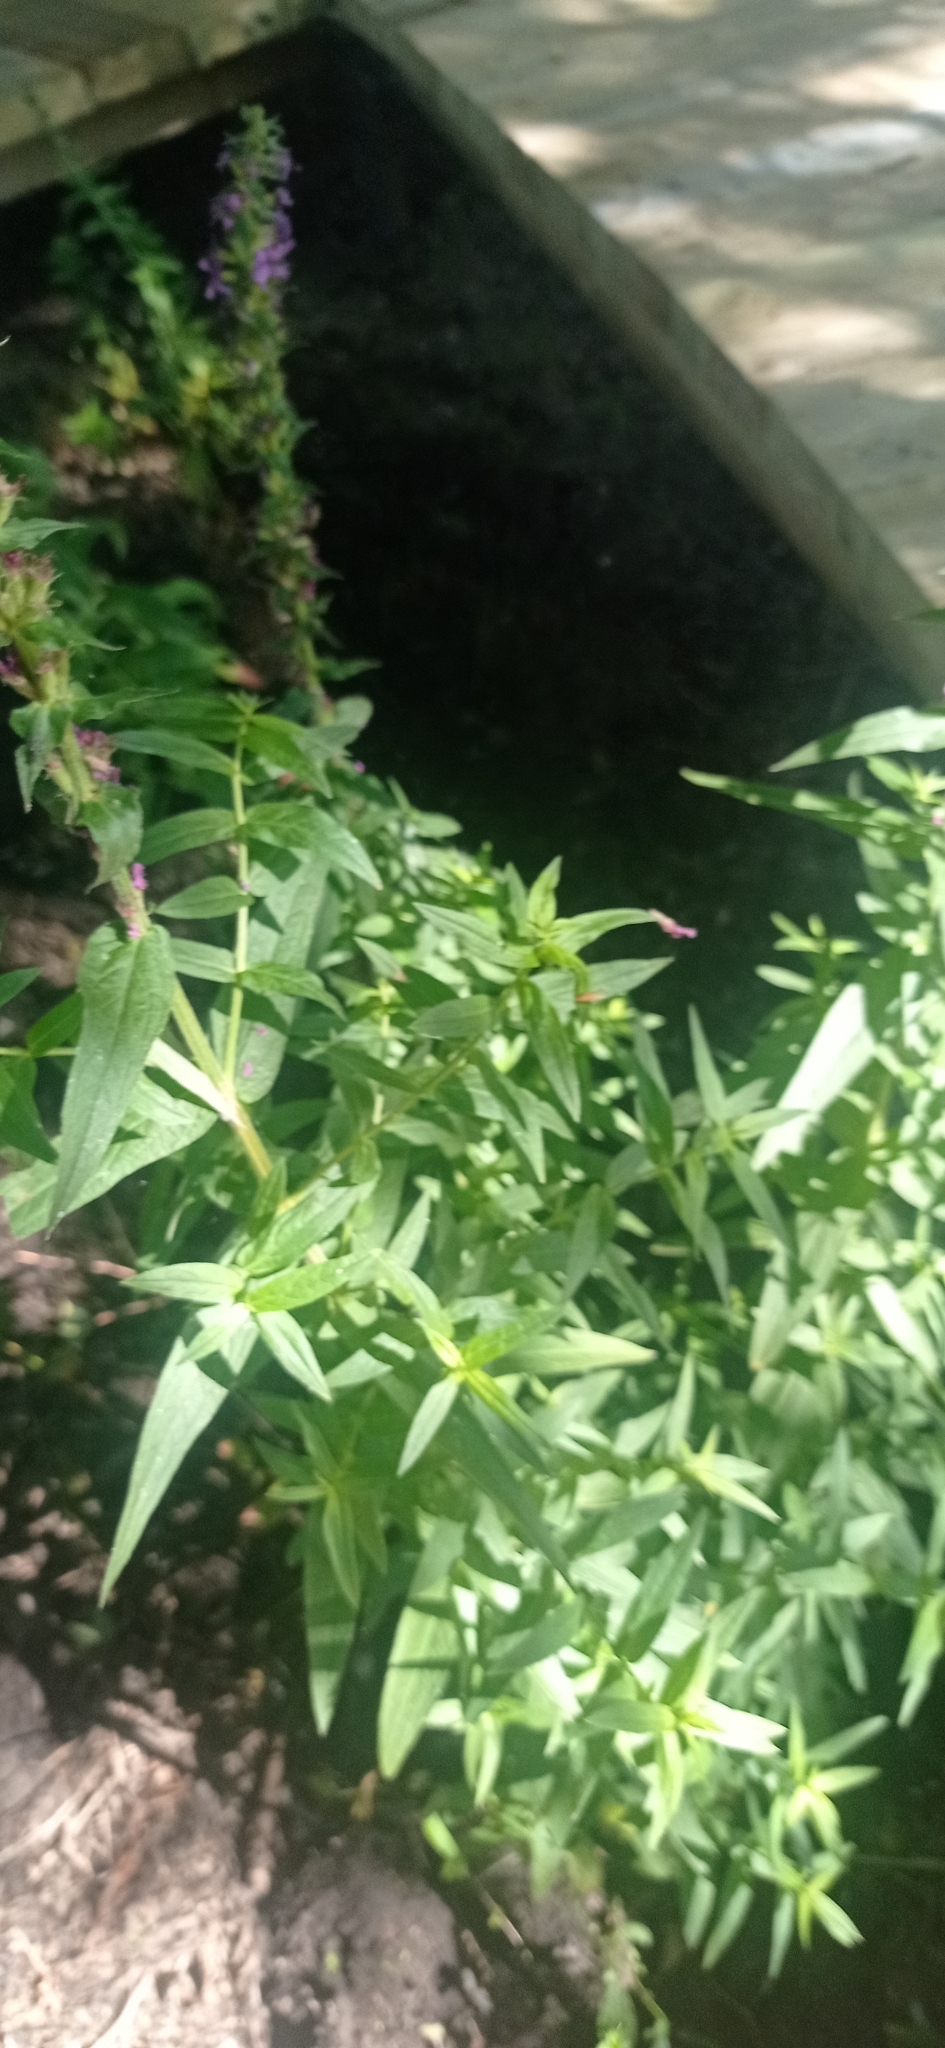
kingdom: Plantae
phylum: Tracheophyta
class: Magnoliopsida
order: Myrtales
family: Lythraceae
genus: Lythrum
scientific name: Lythrum salicaria
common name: Purple loosestrife
